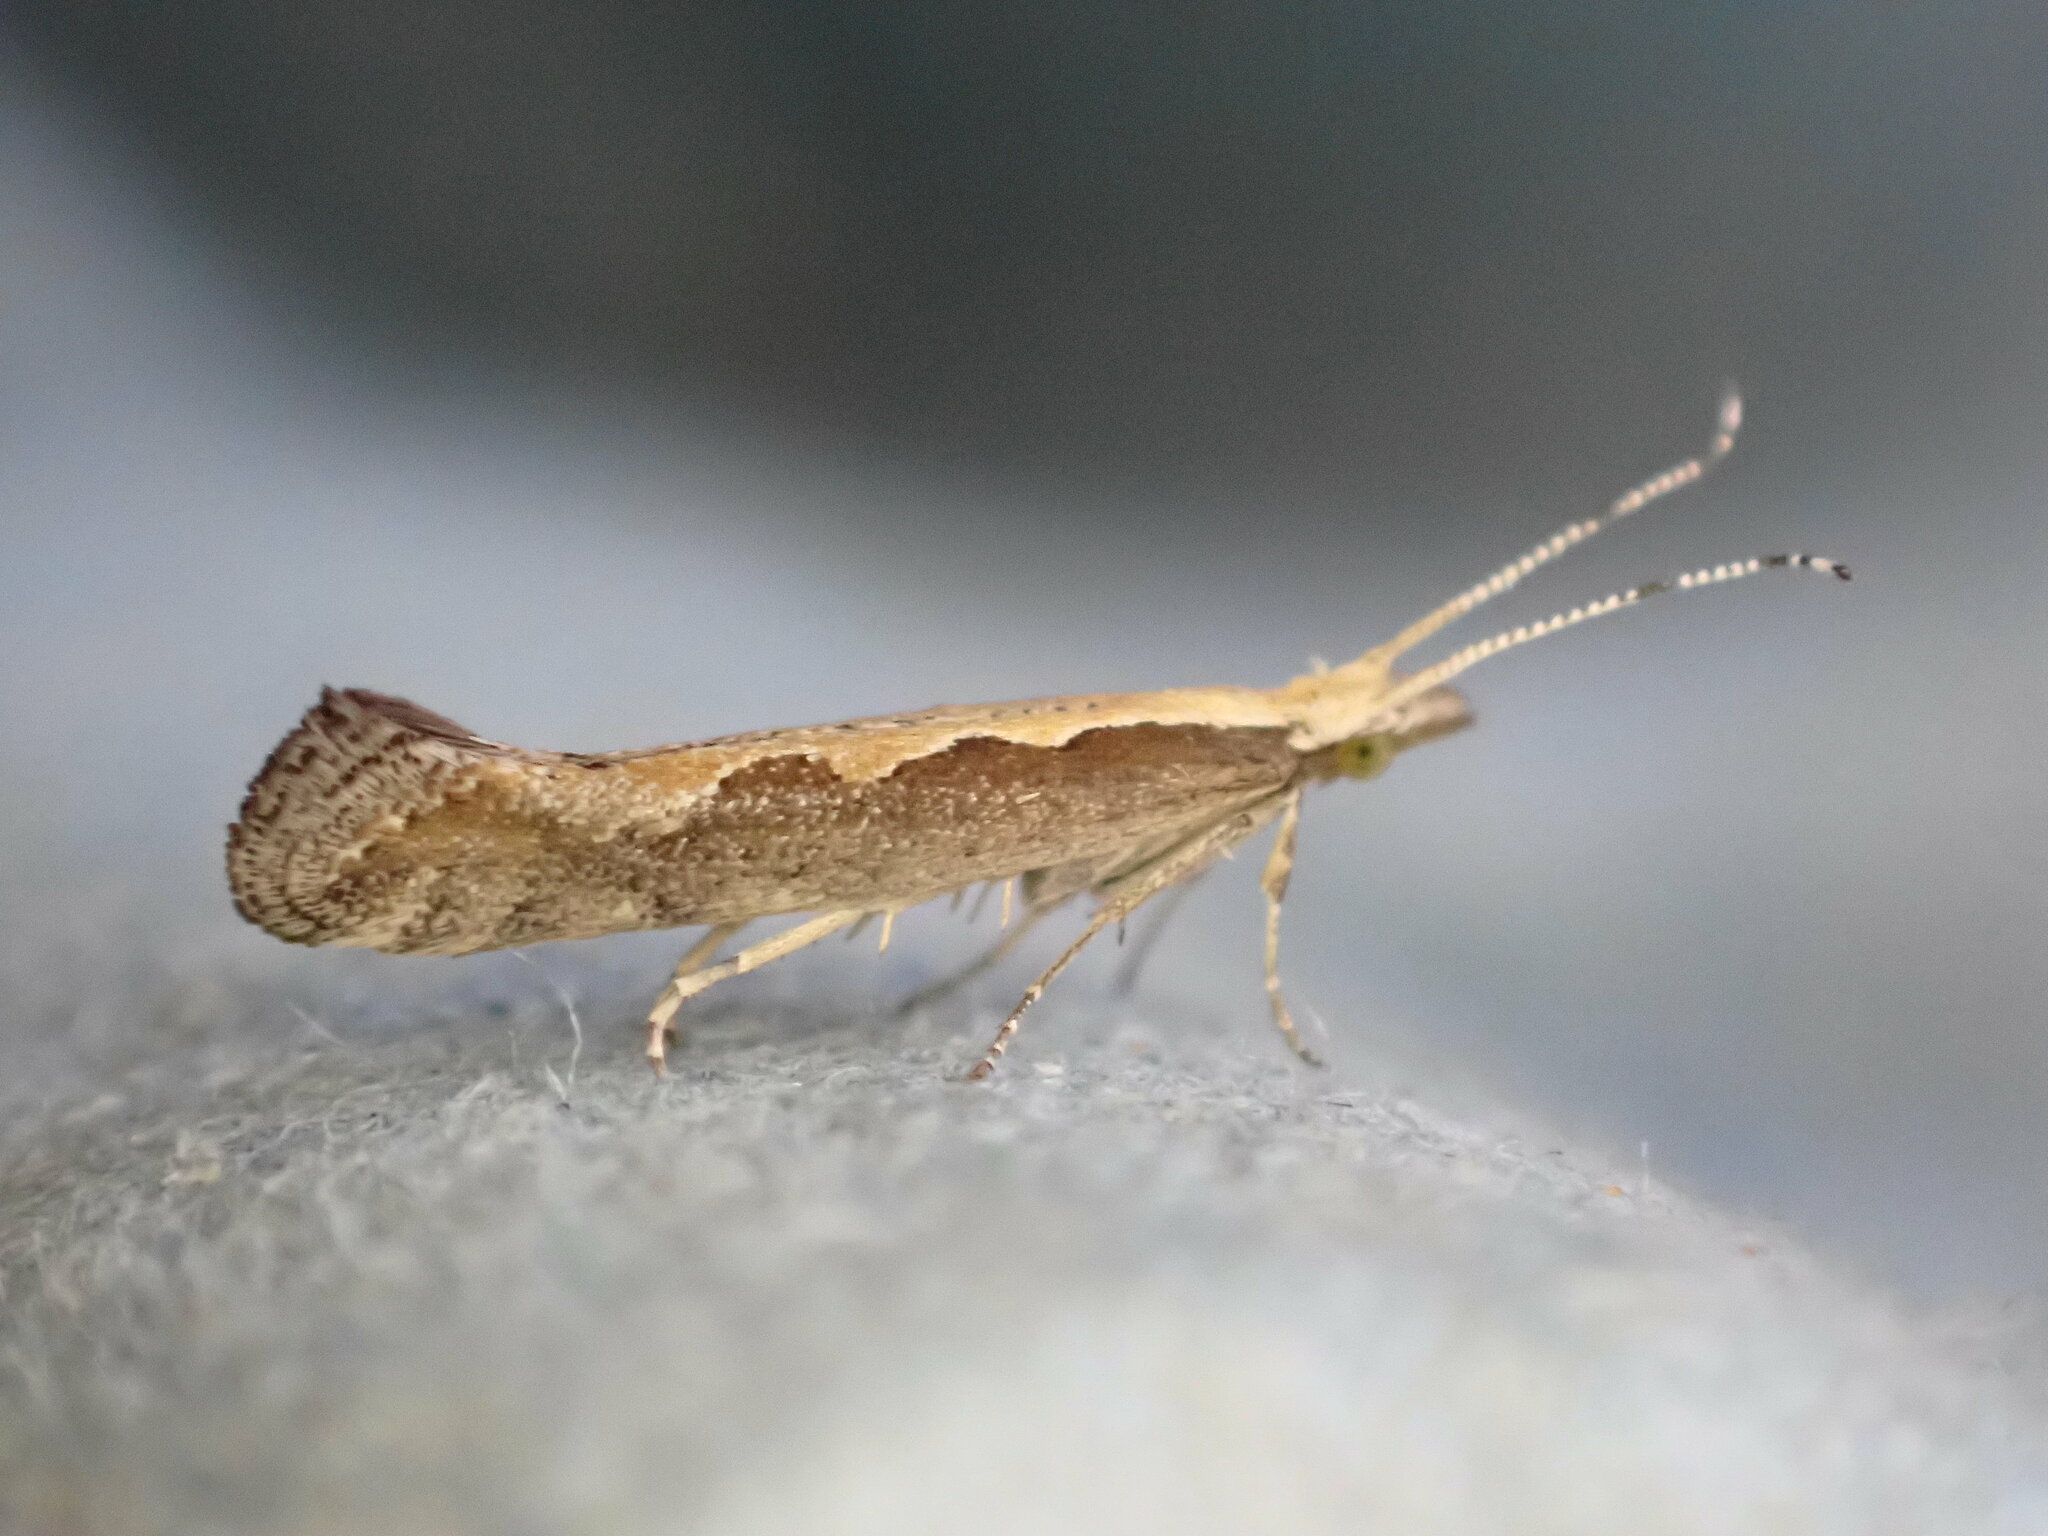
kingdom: Animalia
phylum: Arthropoda
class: Insecta
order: Lepidoptera
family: Plutellidae
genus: Plutella
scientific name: Plutella xylostella
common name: Diamond-back moth
